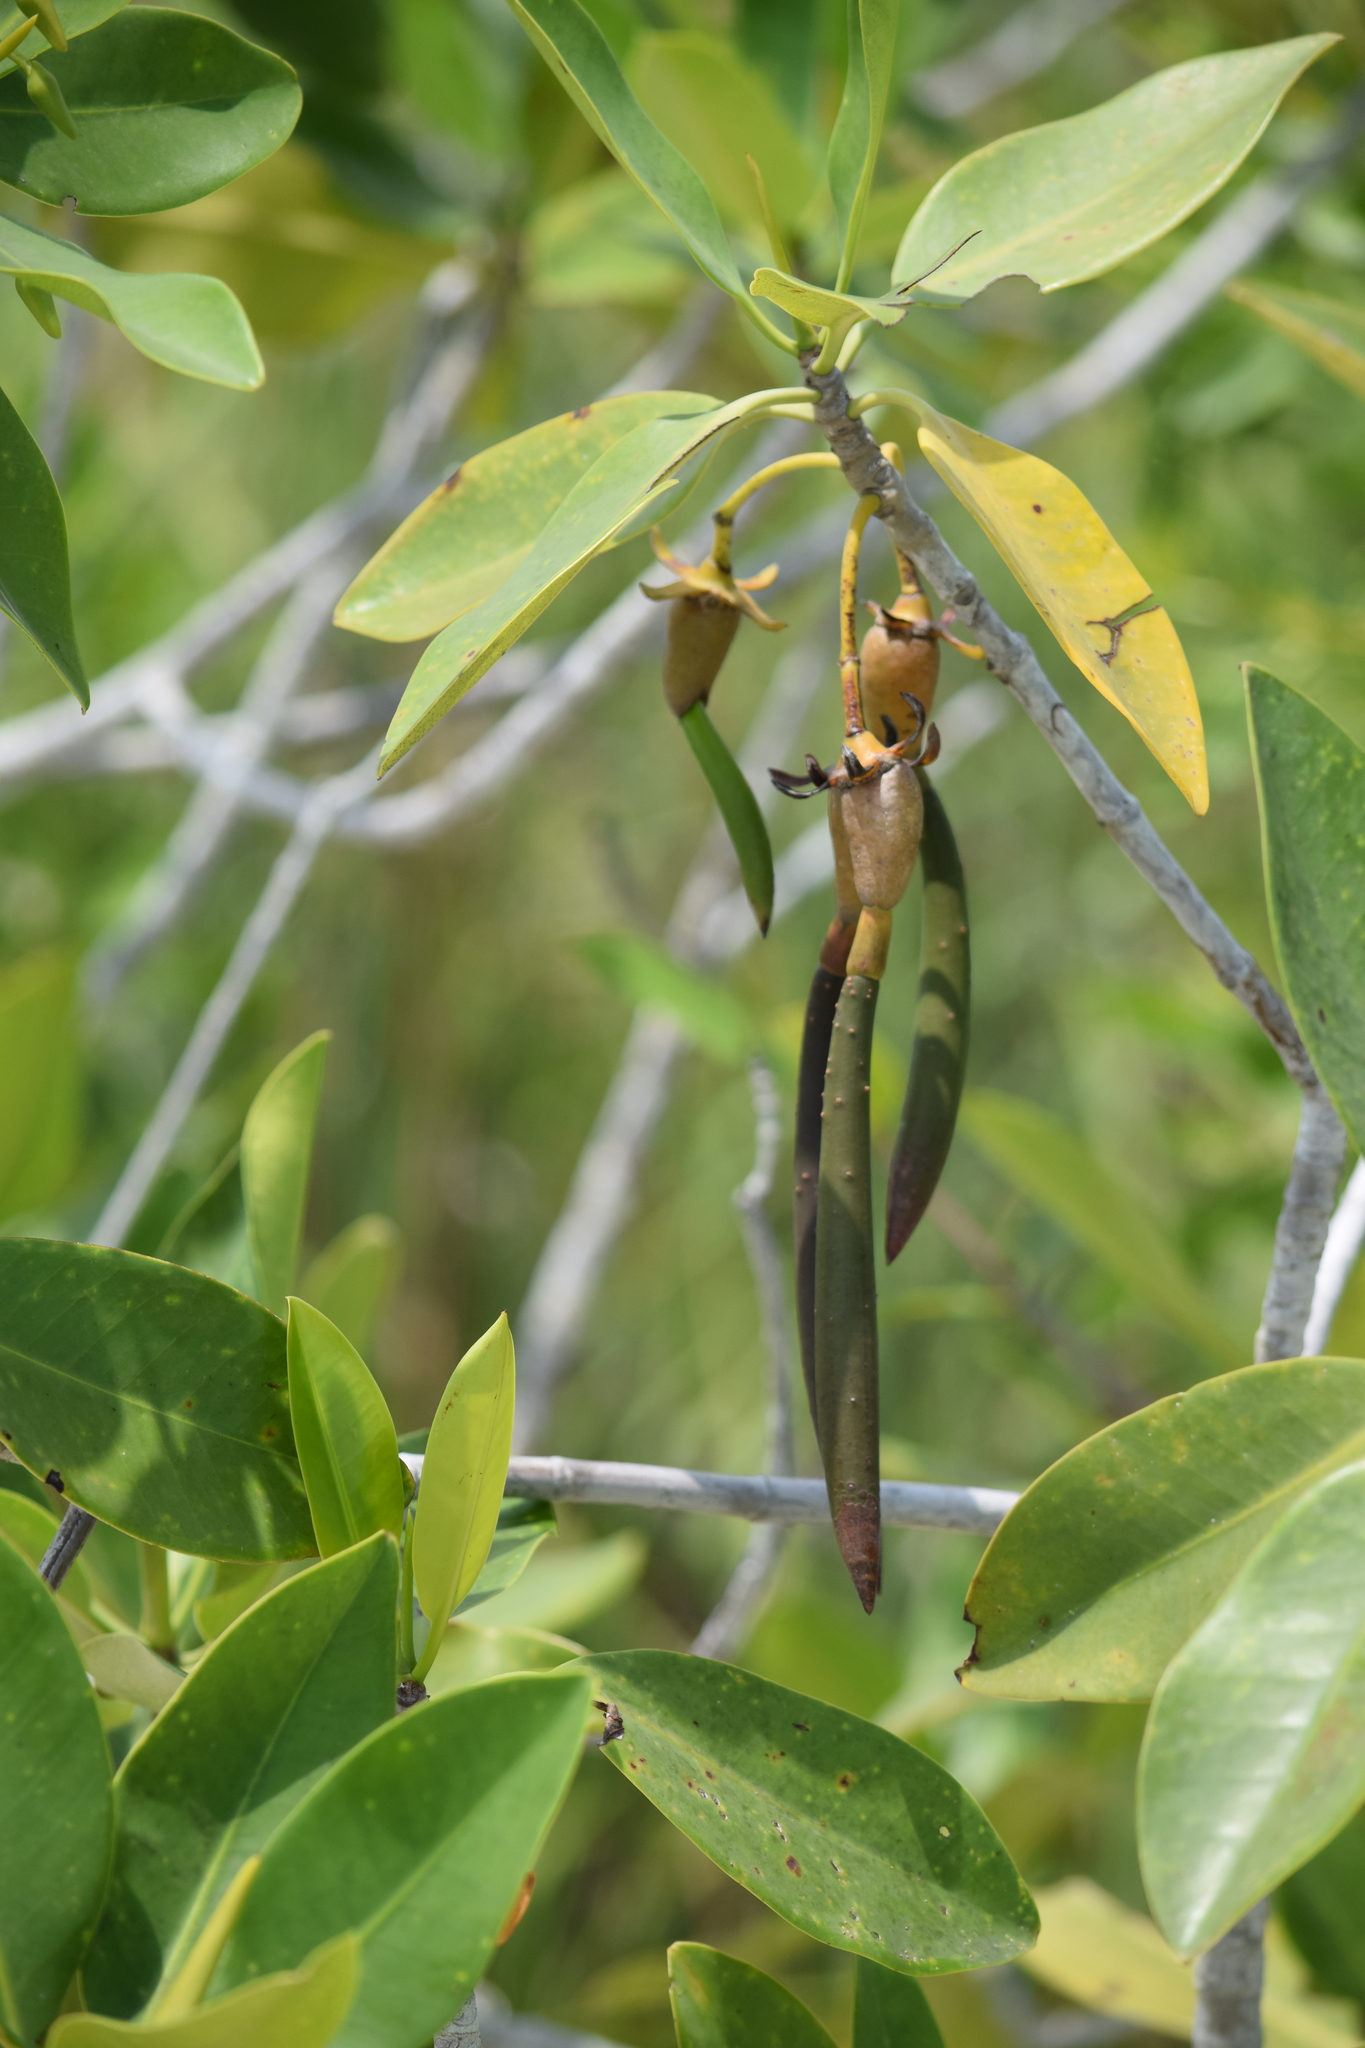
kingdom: Plantae
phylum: Tracheophyta
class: Magnoliopsida
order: Malpighiales
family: Rhizophoraceae
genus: Rhizophora
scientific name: Rhizophora mangle
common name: Red mangrove
